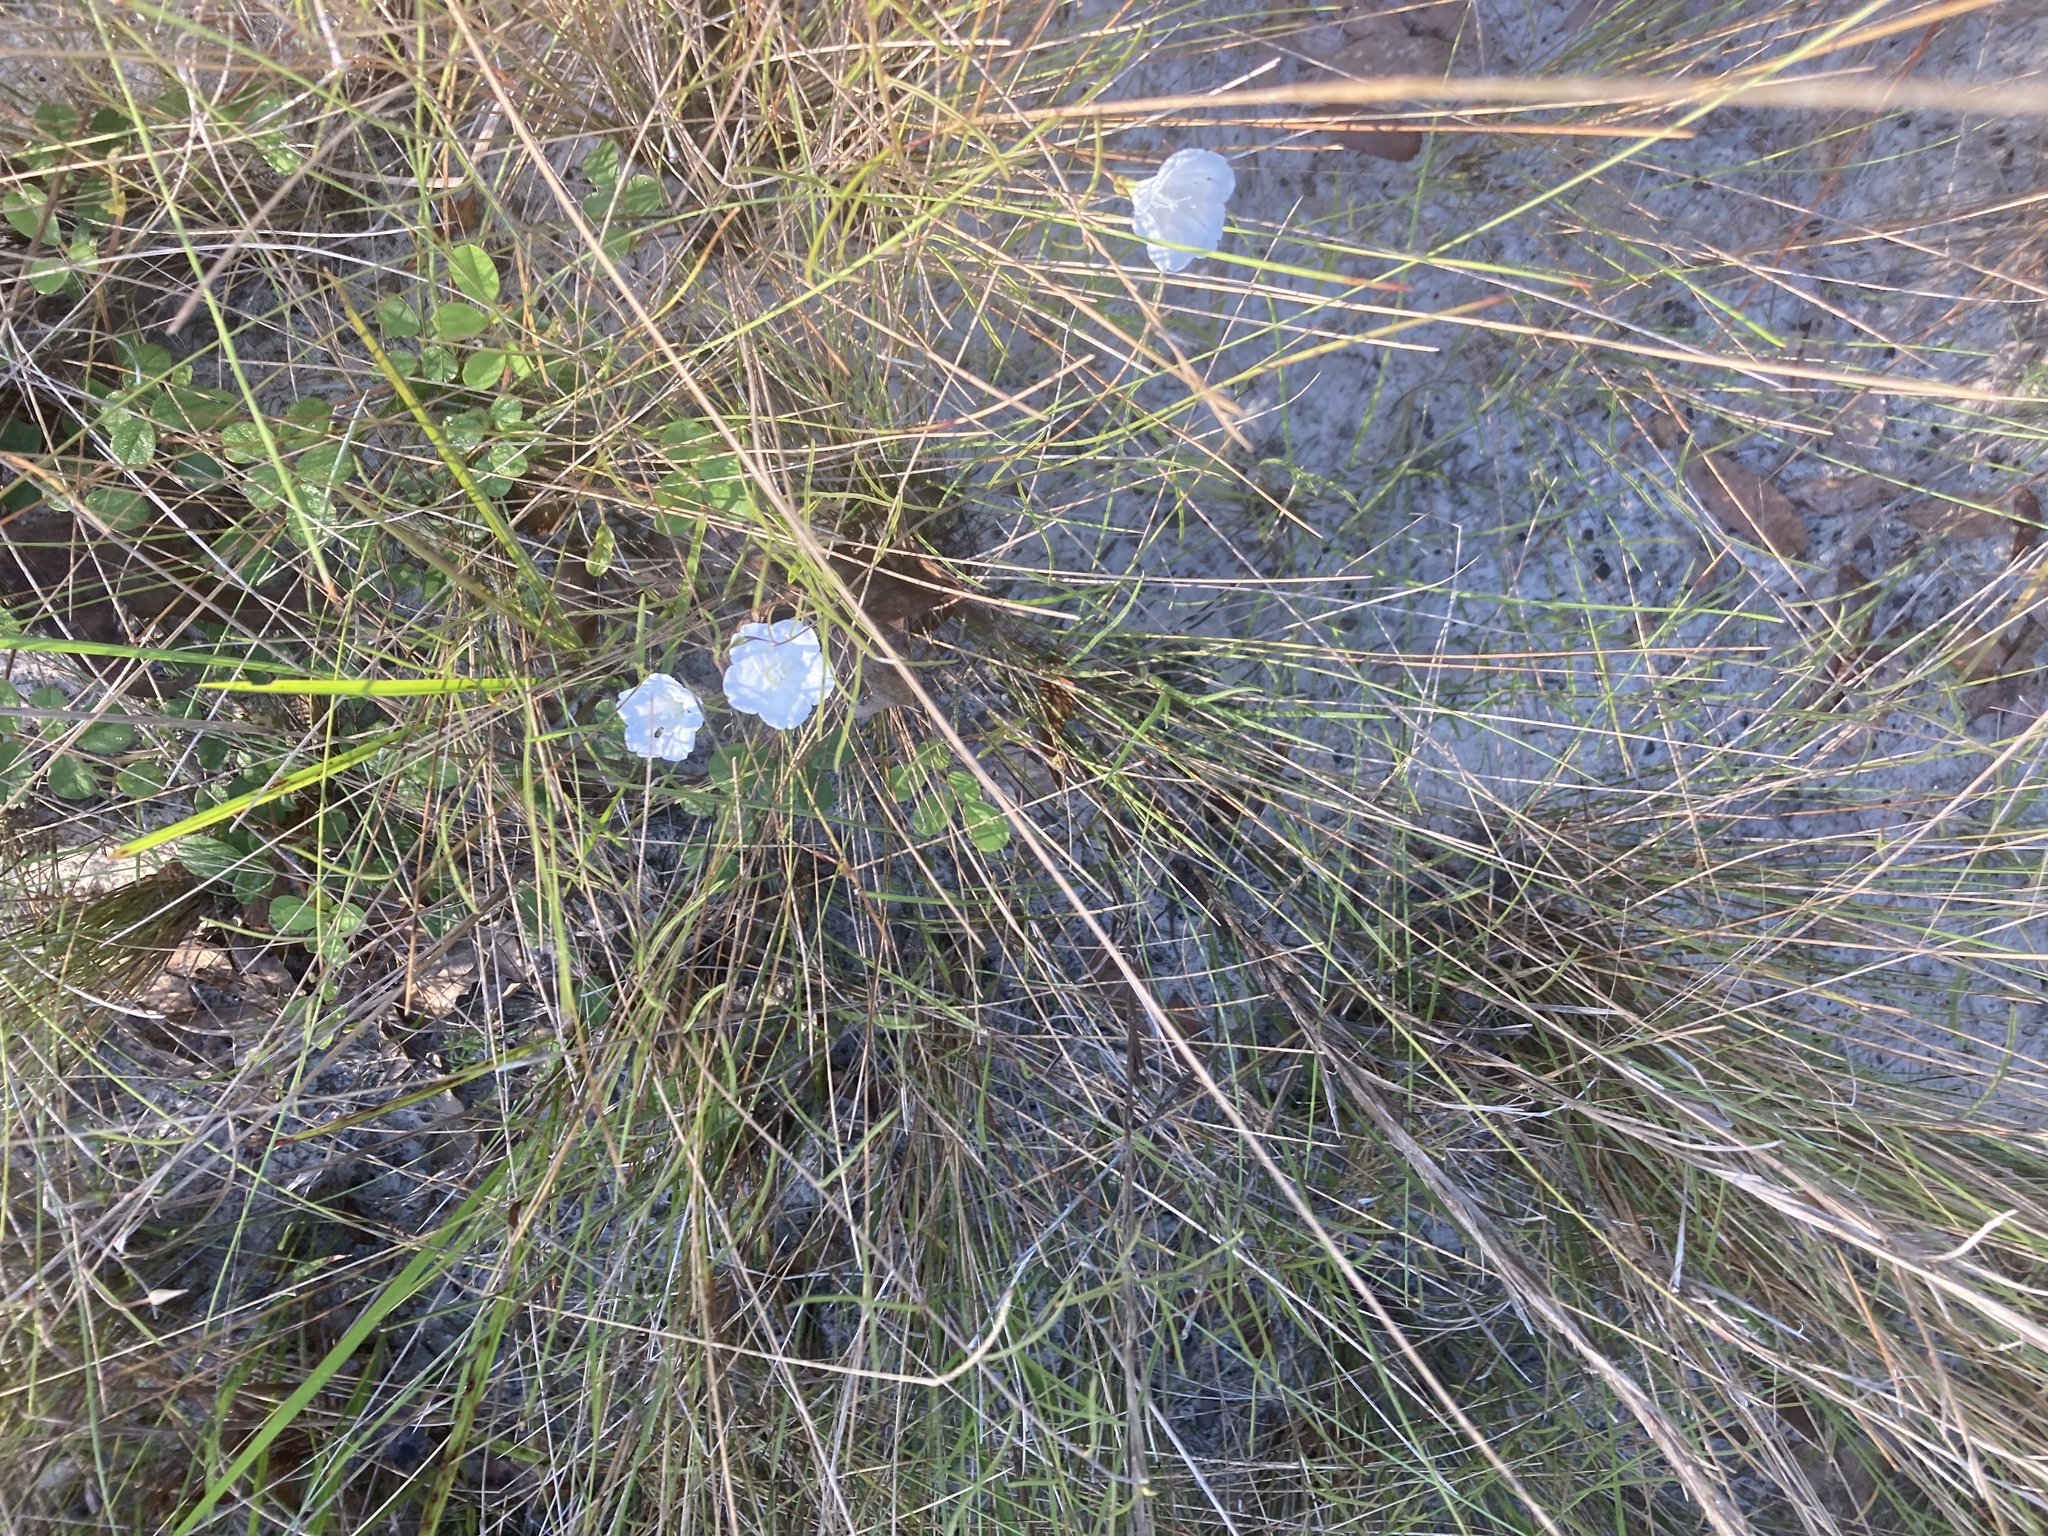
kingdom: Plantae
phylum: Tracheophyta
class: Magnoliopsida
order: Solanales
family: Convolvulaceae
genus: Stylisma
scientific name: Stylisma patens
